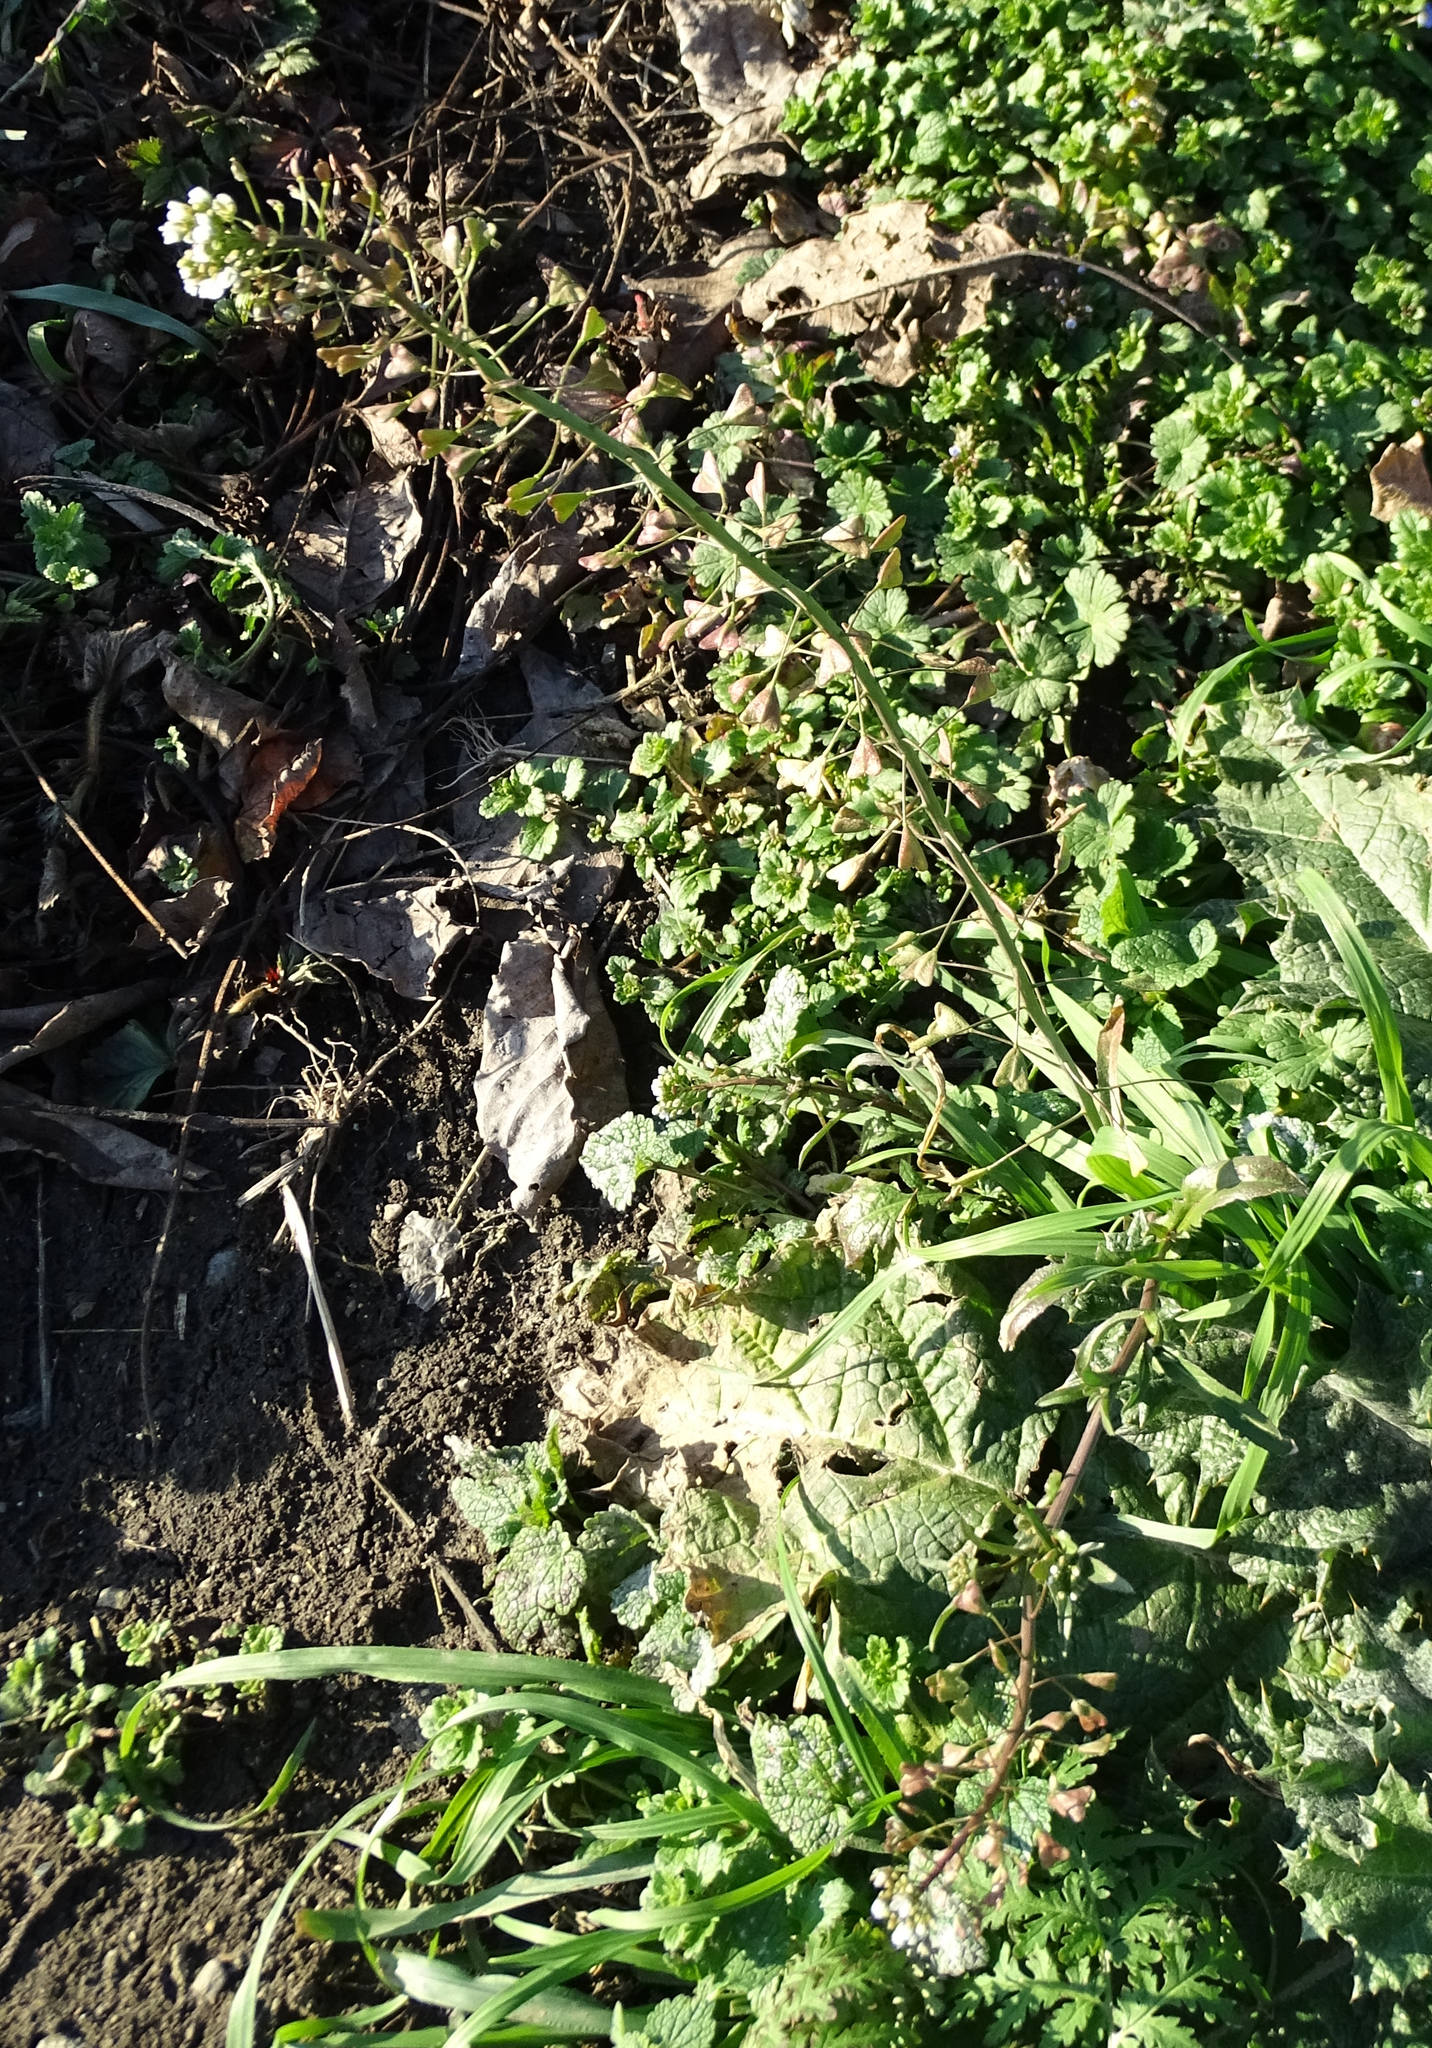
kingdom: Plantae
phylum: Tracheophyta
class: Magnoliopsida
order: Brassicales
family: Brassicaceae
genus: Capsella
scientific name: Capsella bursa-pastoris
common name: Shepherd's purse
